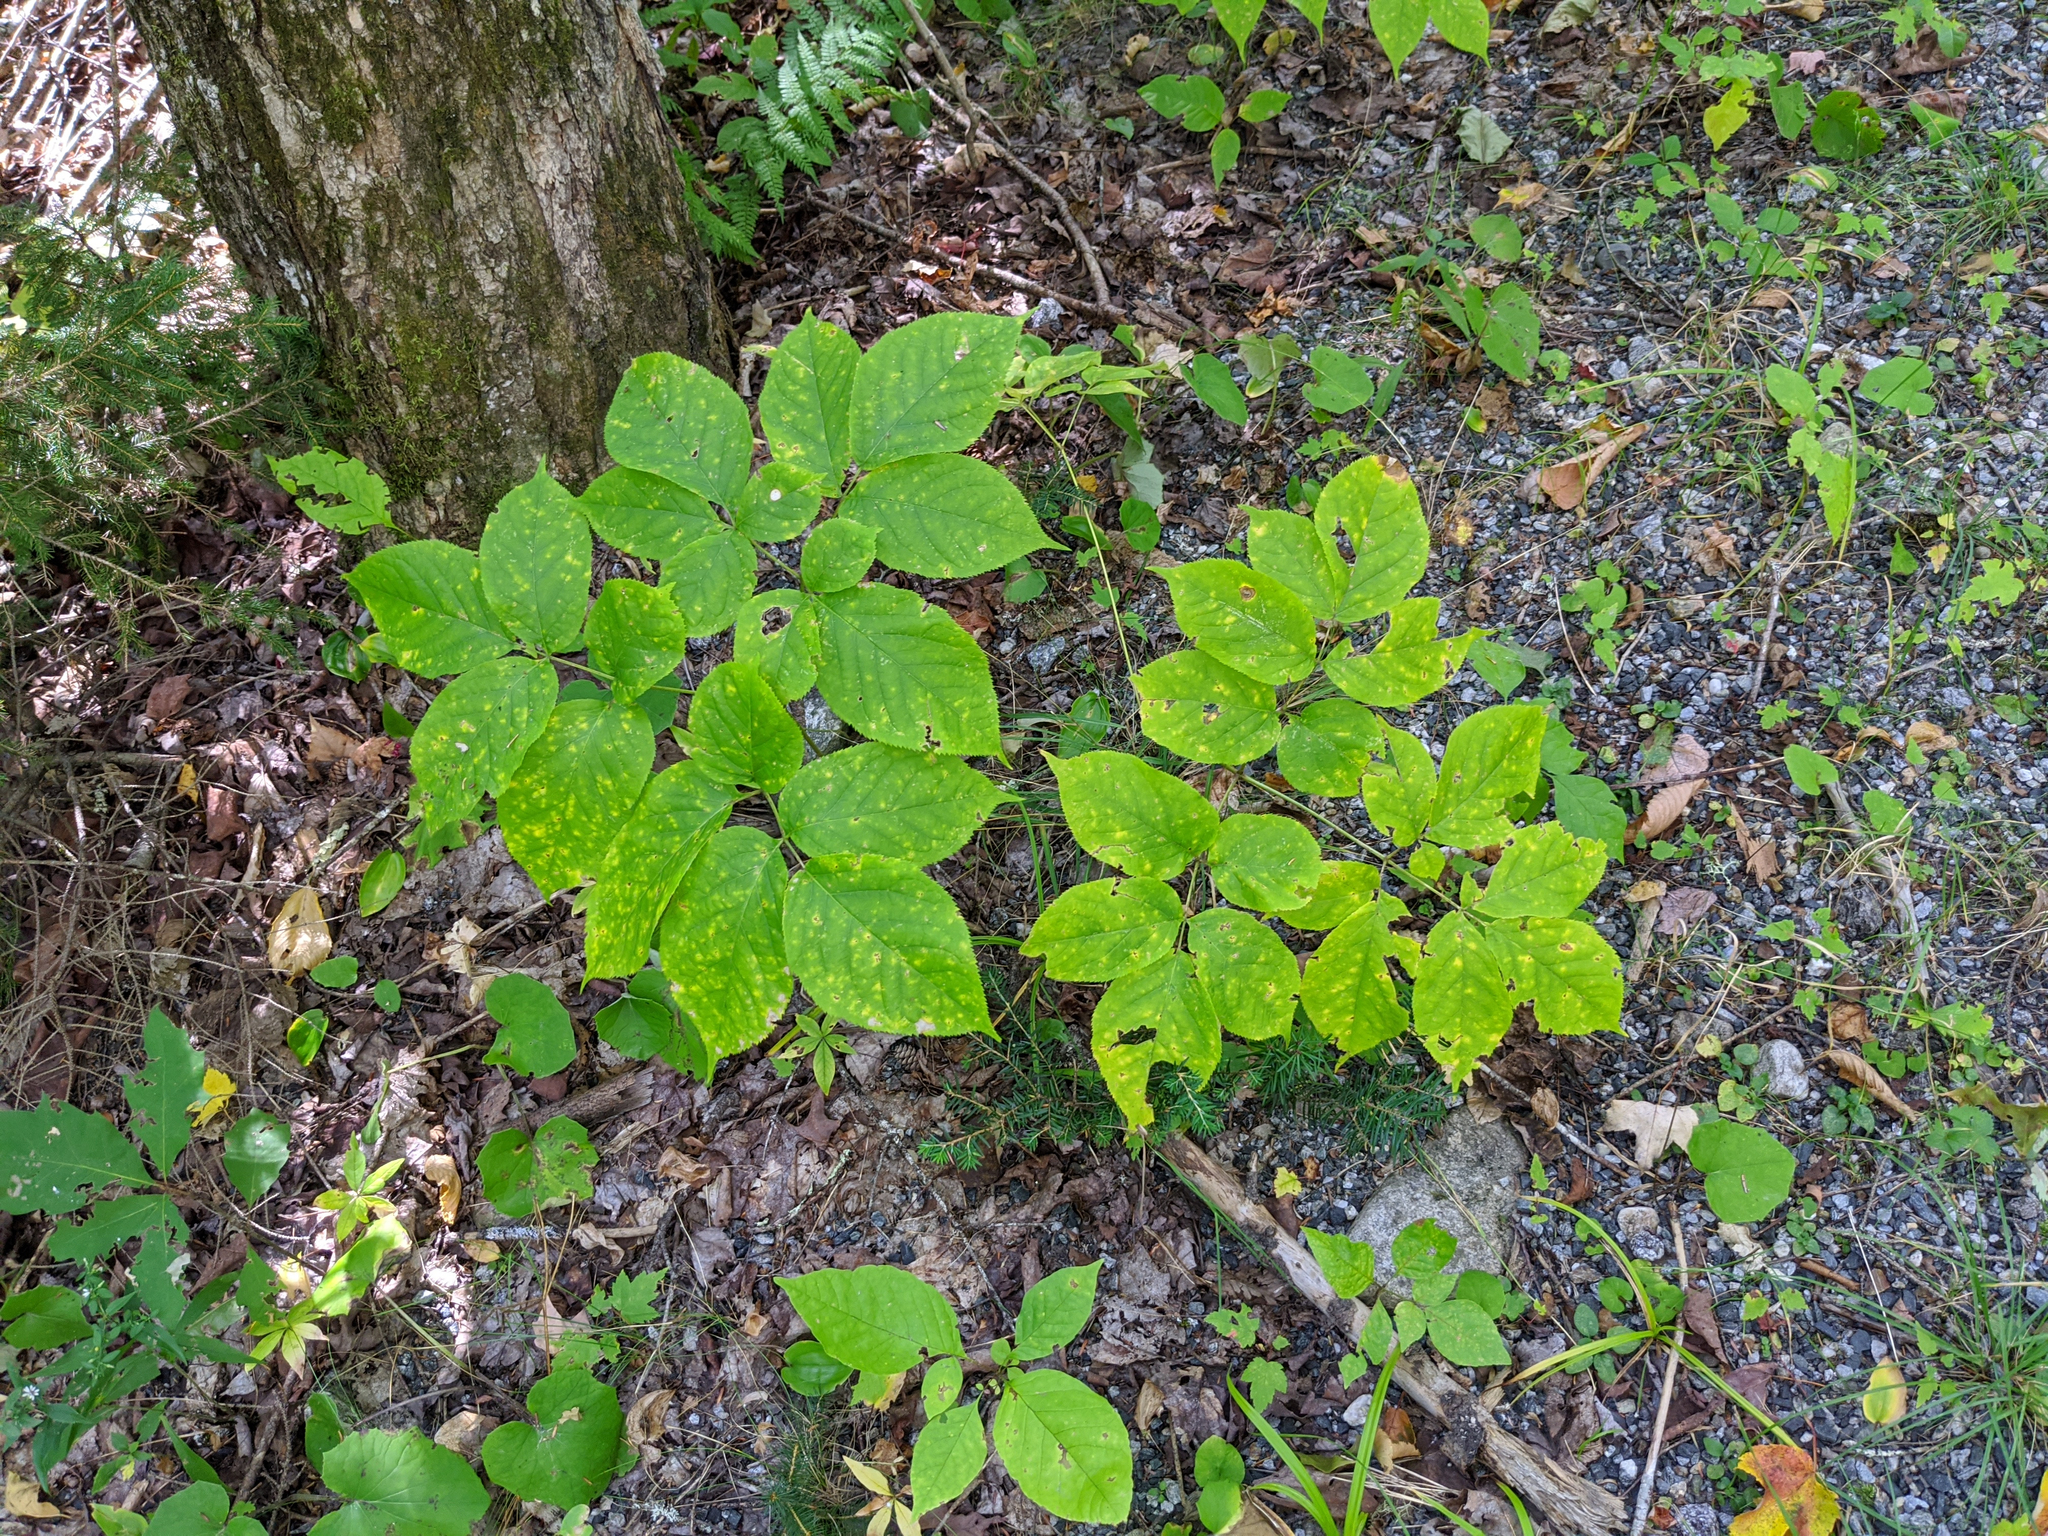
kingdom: Plantae
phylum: Tracheophyta
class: Magnoliopsida
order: Apiales
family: Araliaceae
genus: Aralia
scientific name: Aralia nudicaulis
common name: Wild sarsaparilla
